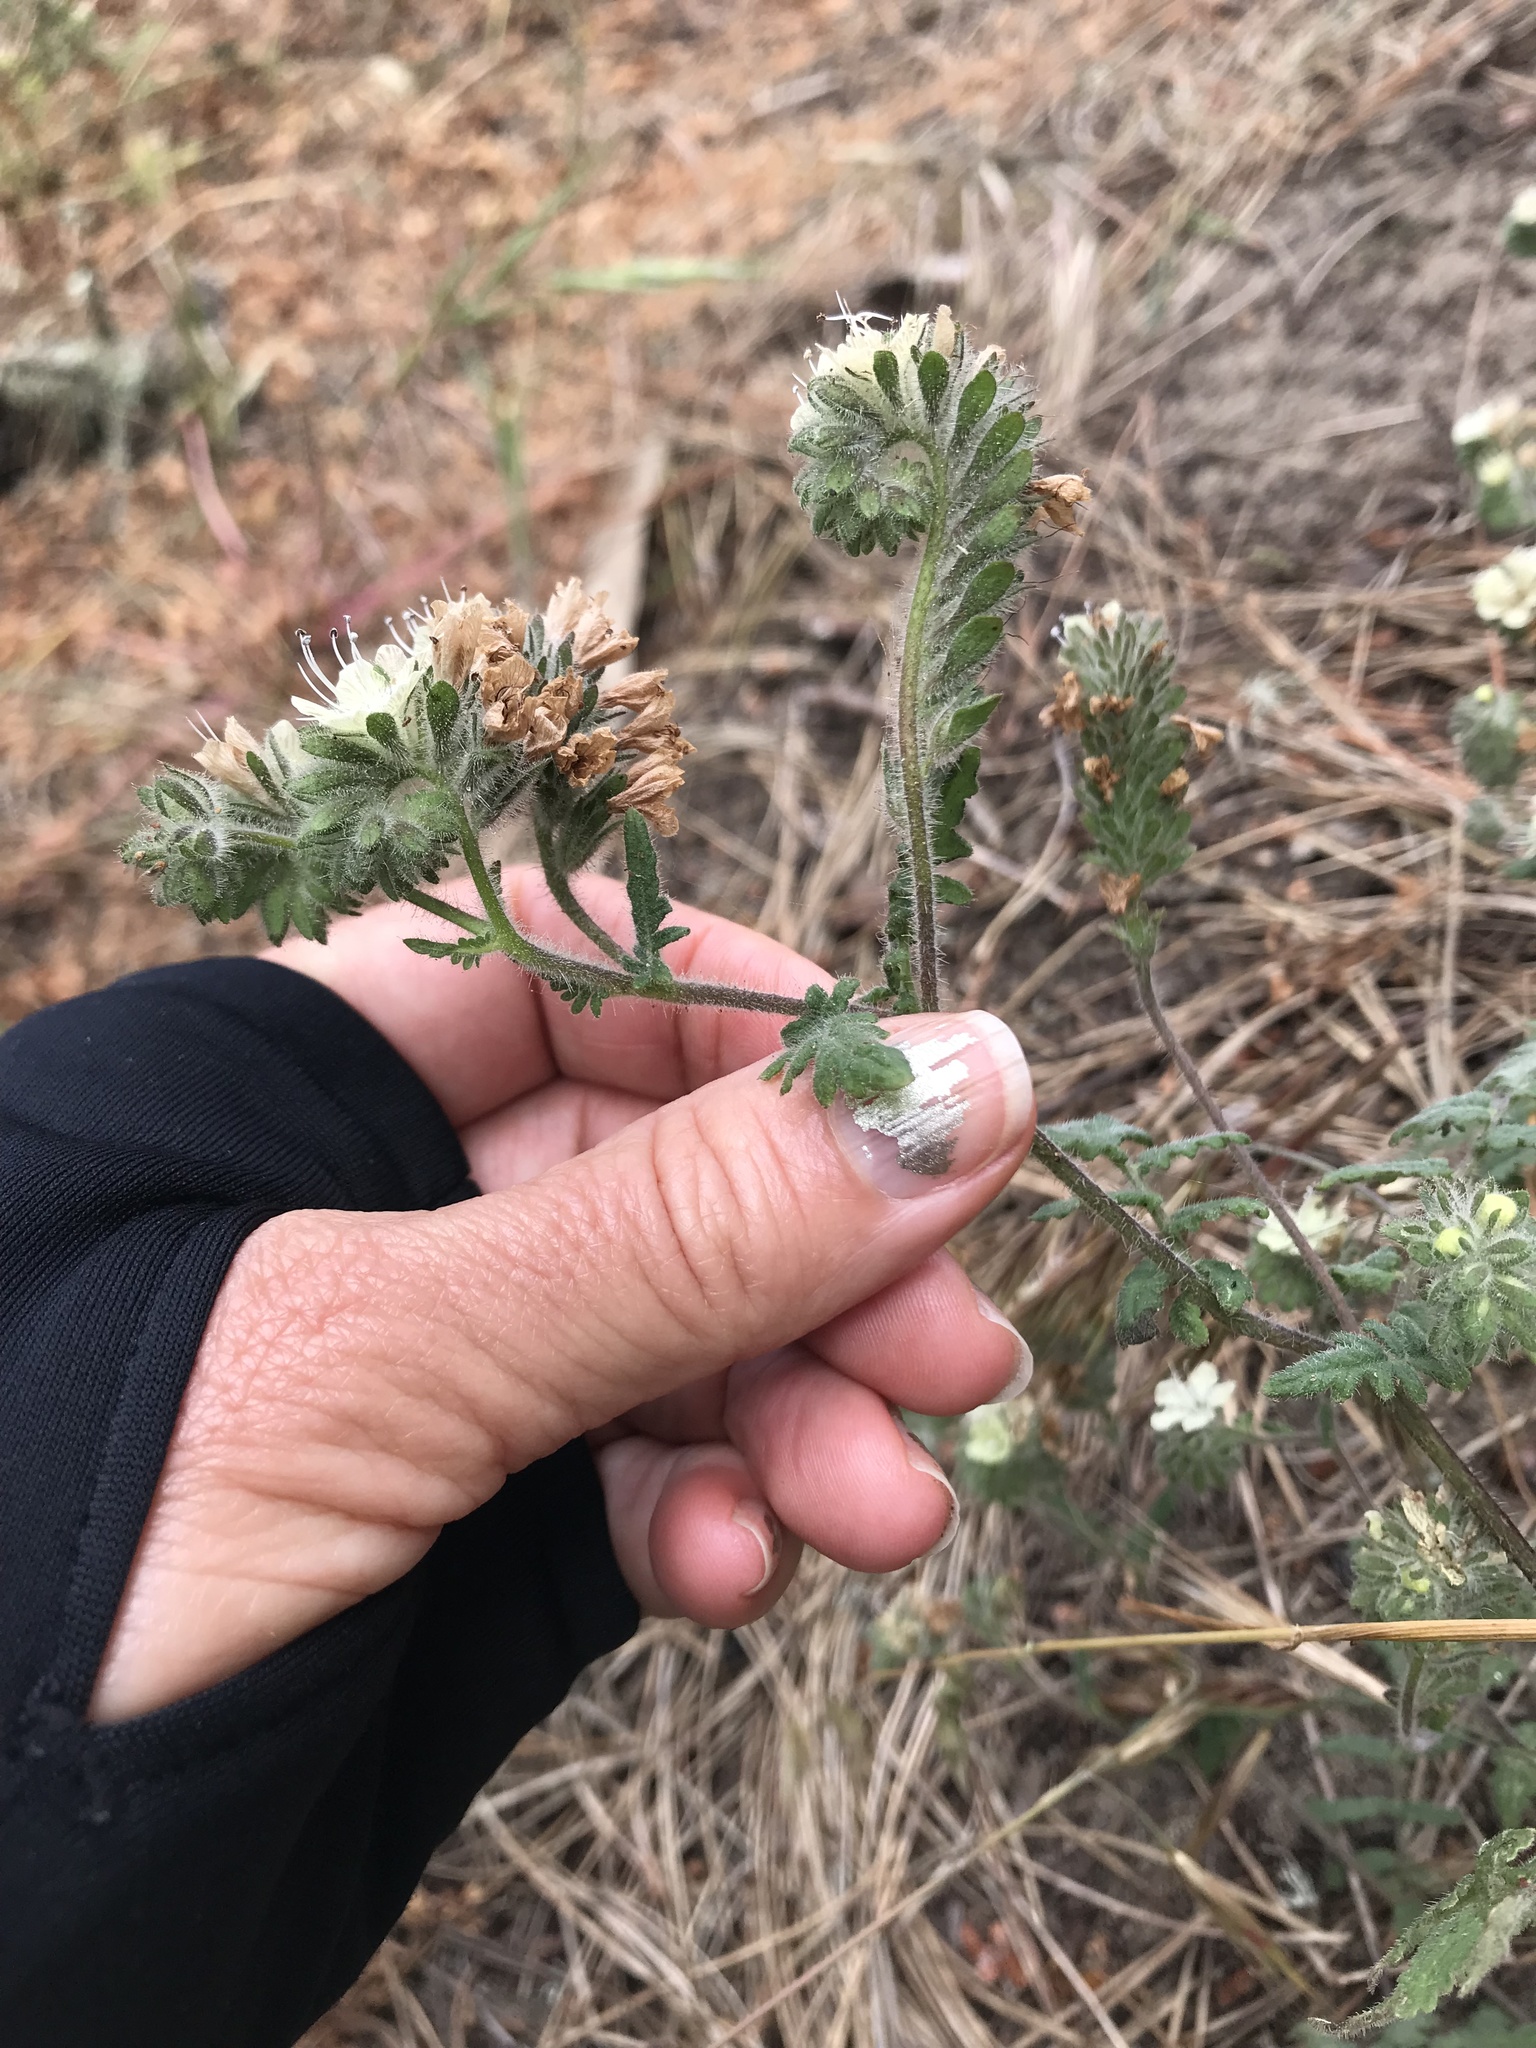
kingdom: Plantae
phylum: Tracheophyta
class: Magnoliopsida
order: Boraginales
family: Hydrophyllaceae
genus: Phacelia
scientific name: Phacelia distans
